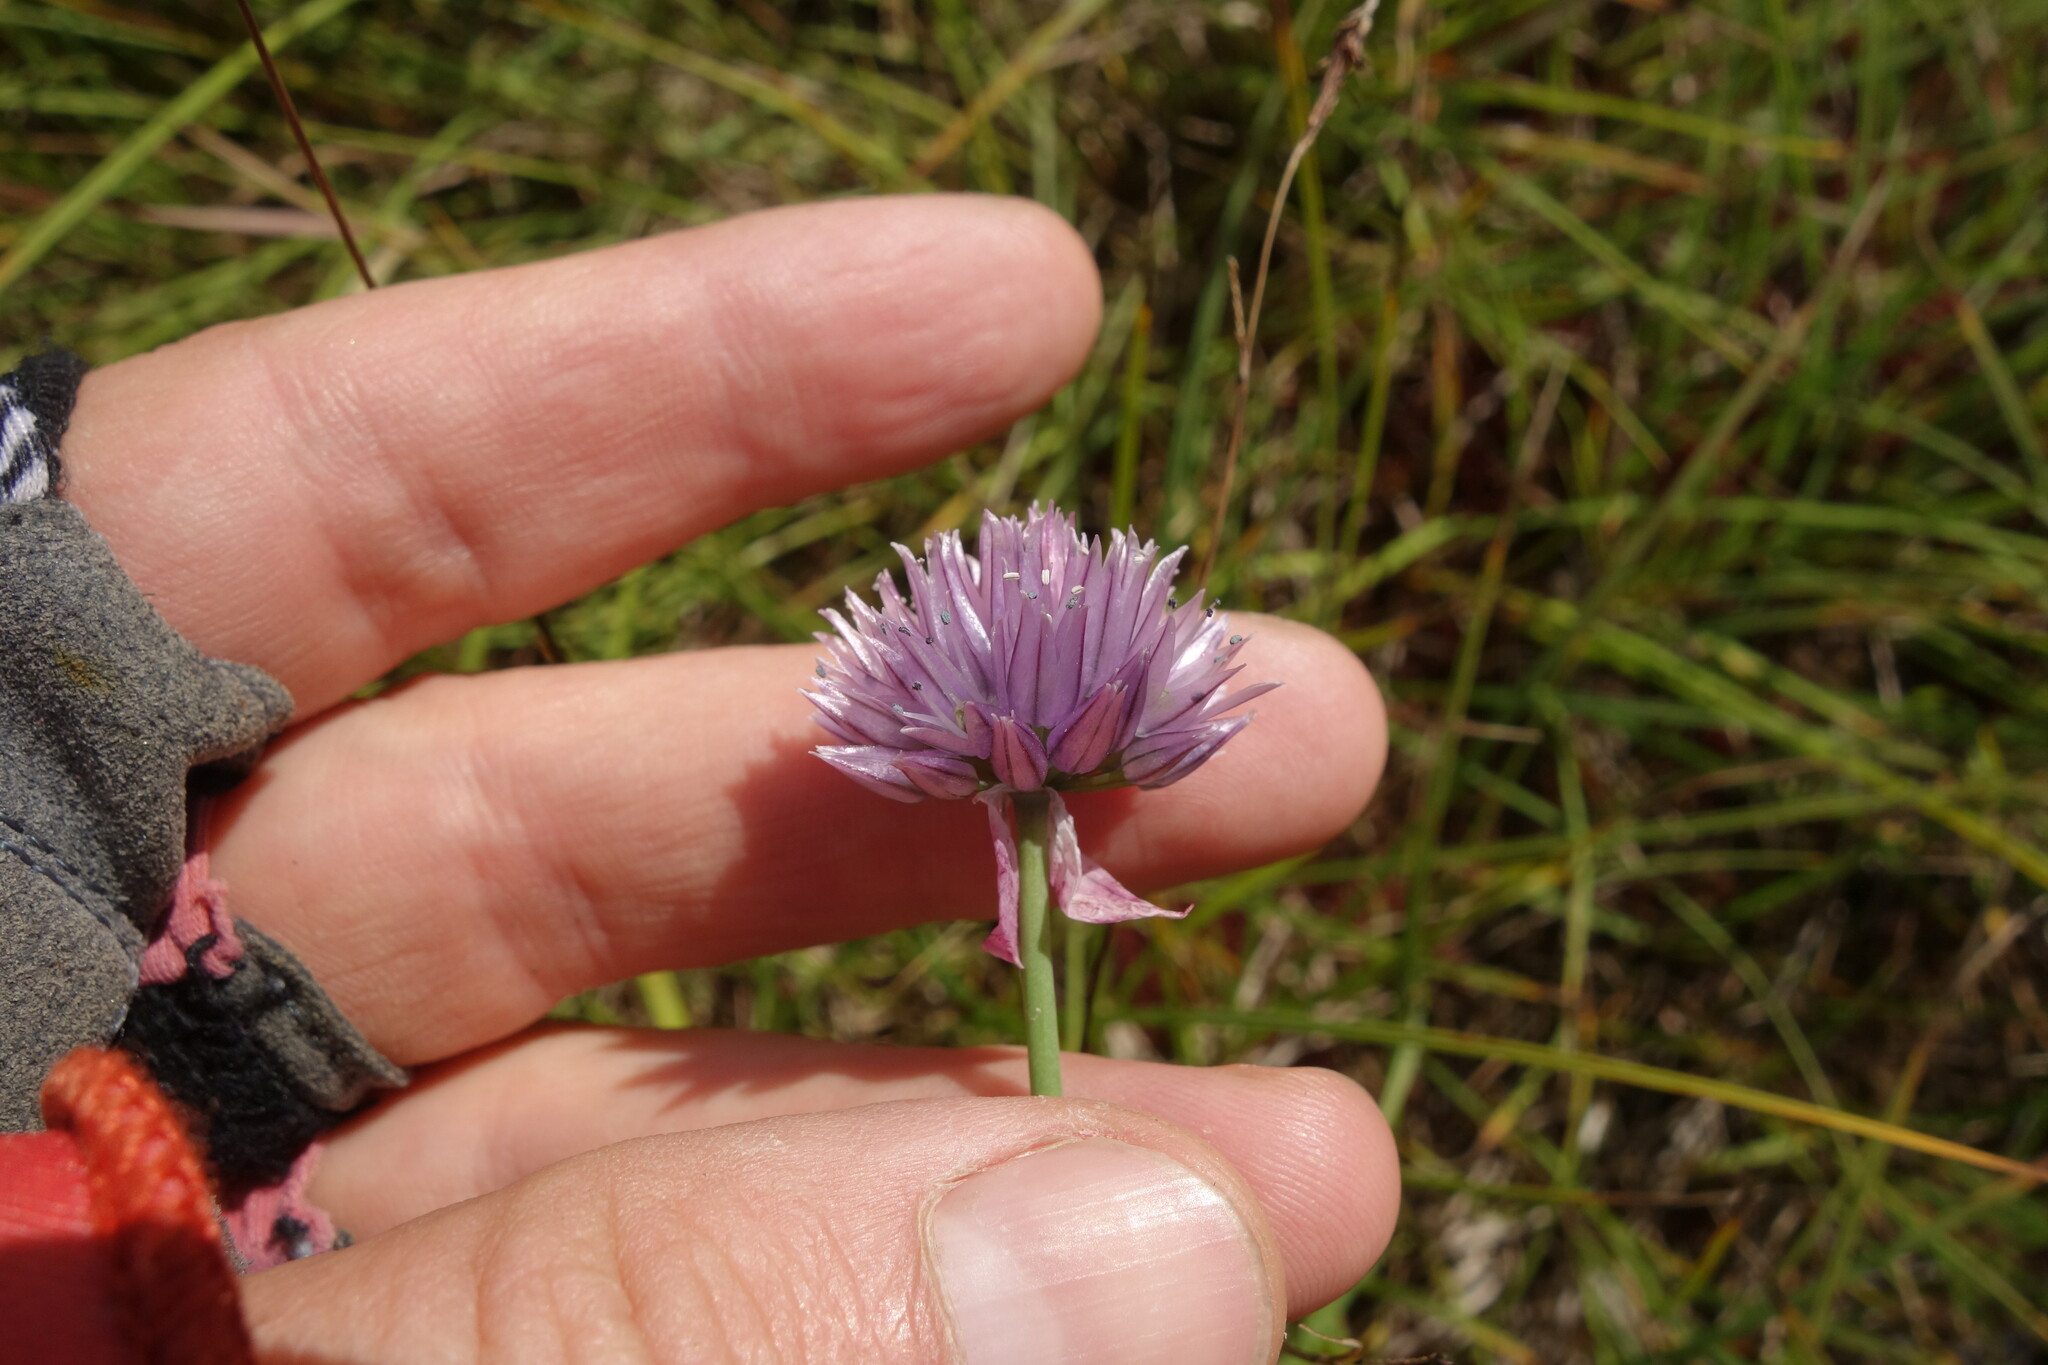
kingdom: Plantae
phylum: Tracheophyta
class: Liliopsida
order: Asparagales
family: Amaryllidaceae
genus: Allium
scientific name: Allium schoenoprasum
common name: Chives
